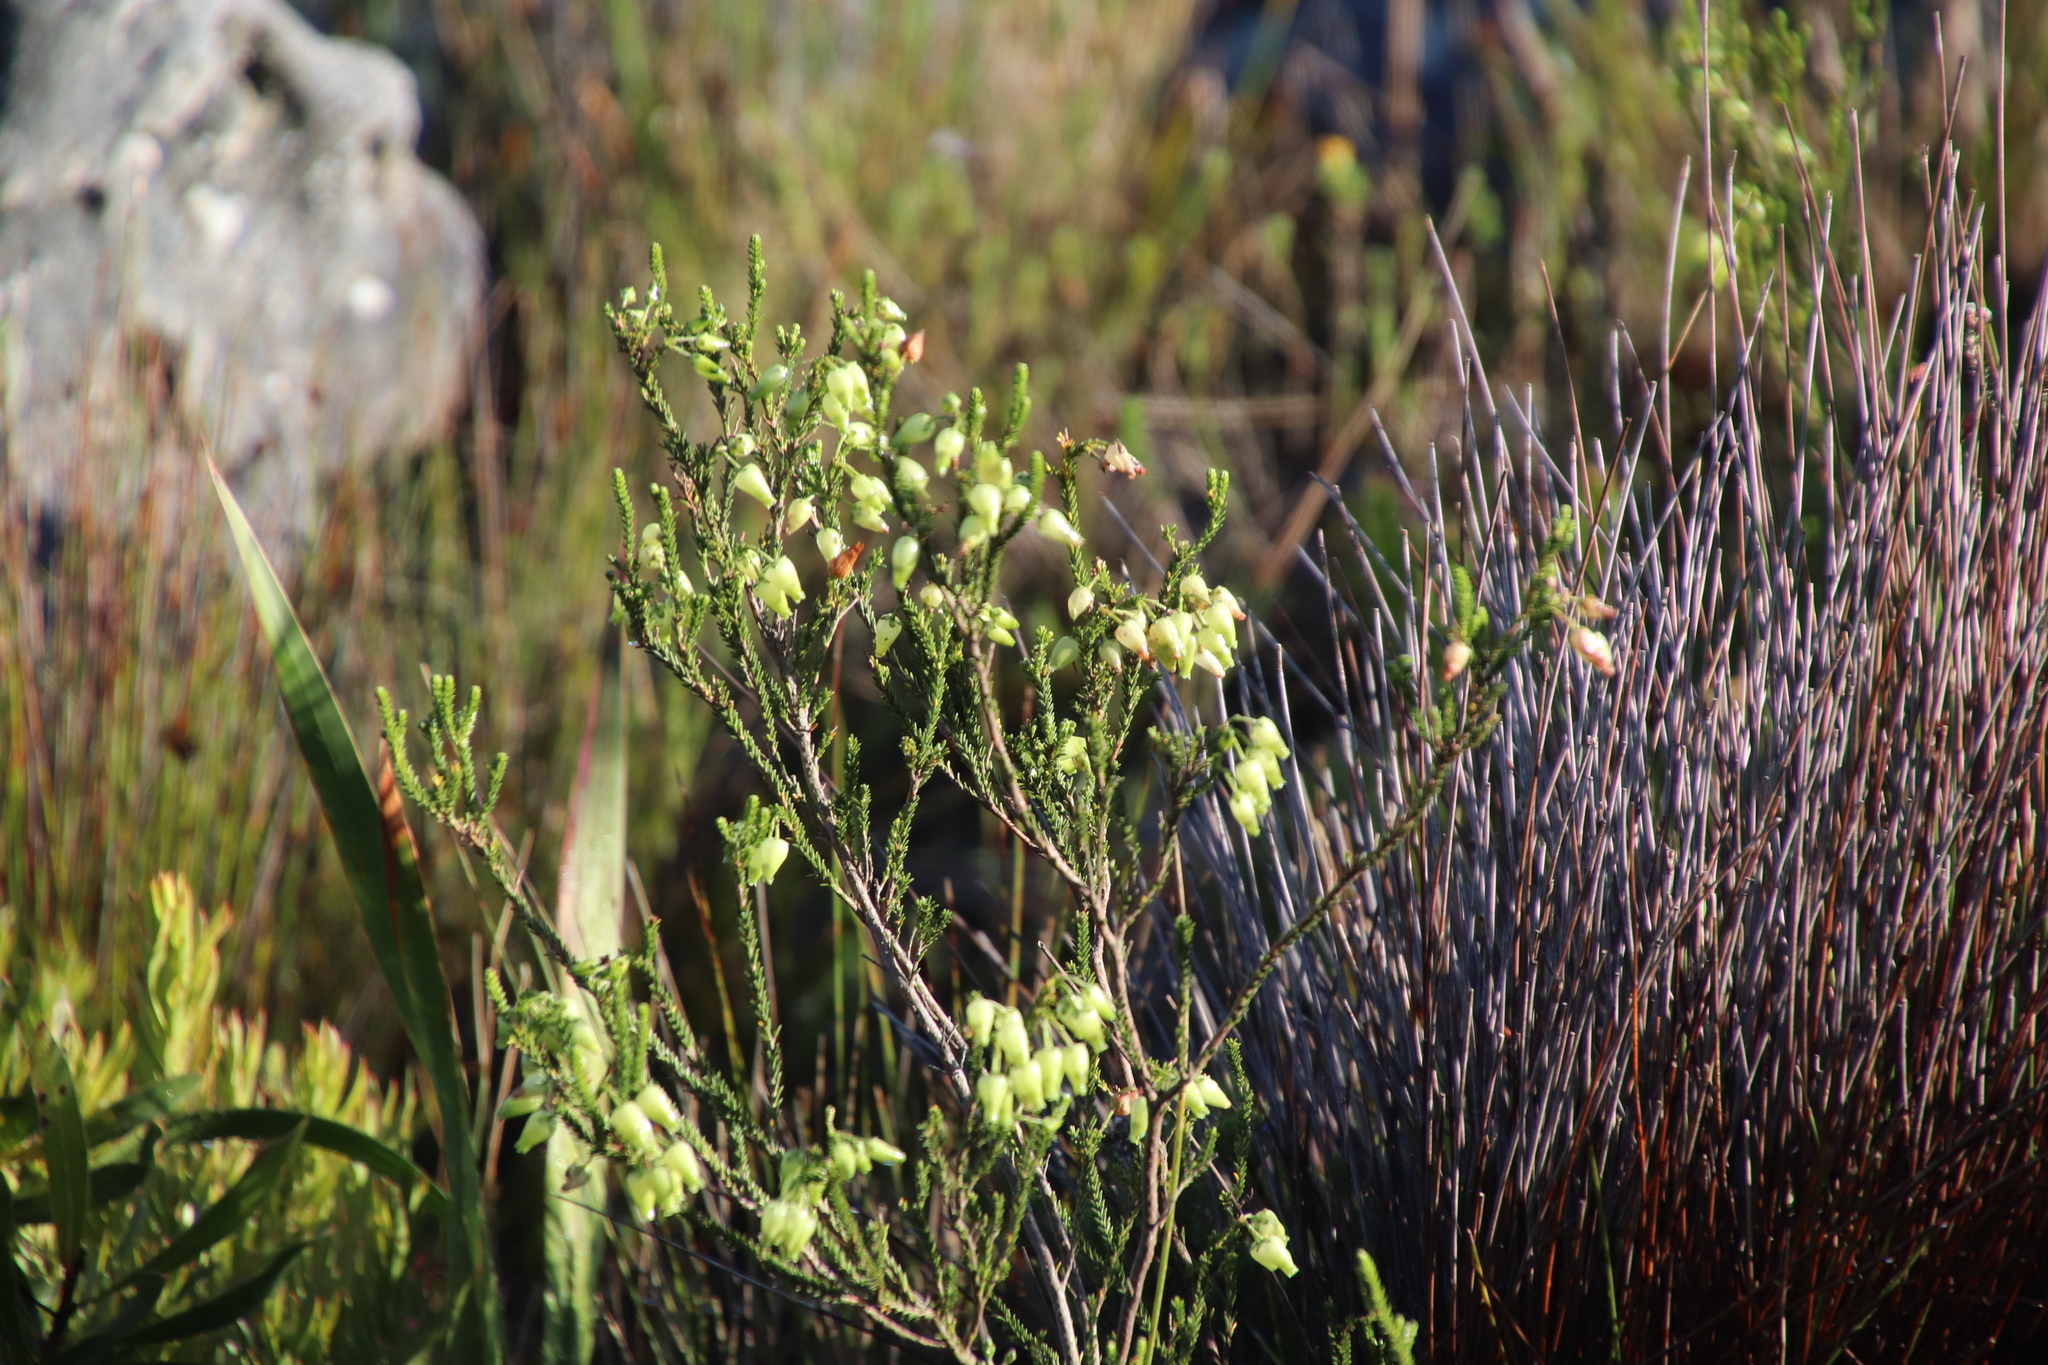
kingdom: Plantae
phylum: Tracheophyta
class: Magnoliopsida
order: Ericales
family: Ericaceae
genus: Erica
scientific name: Erica urna-viridis
